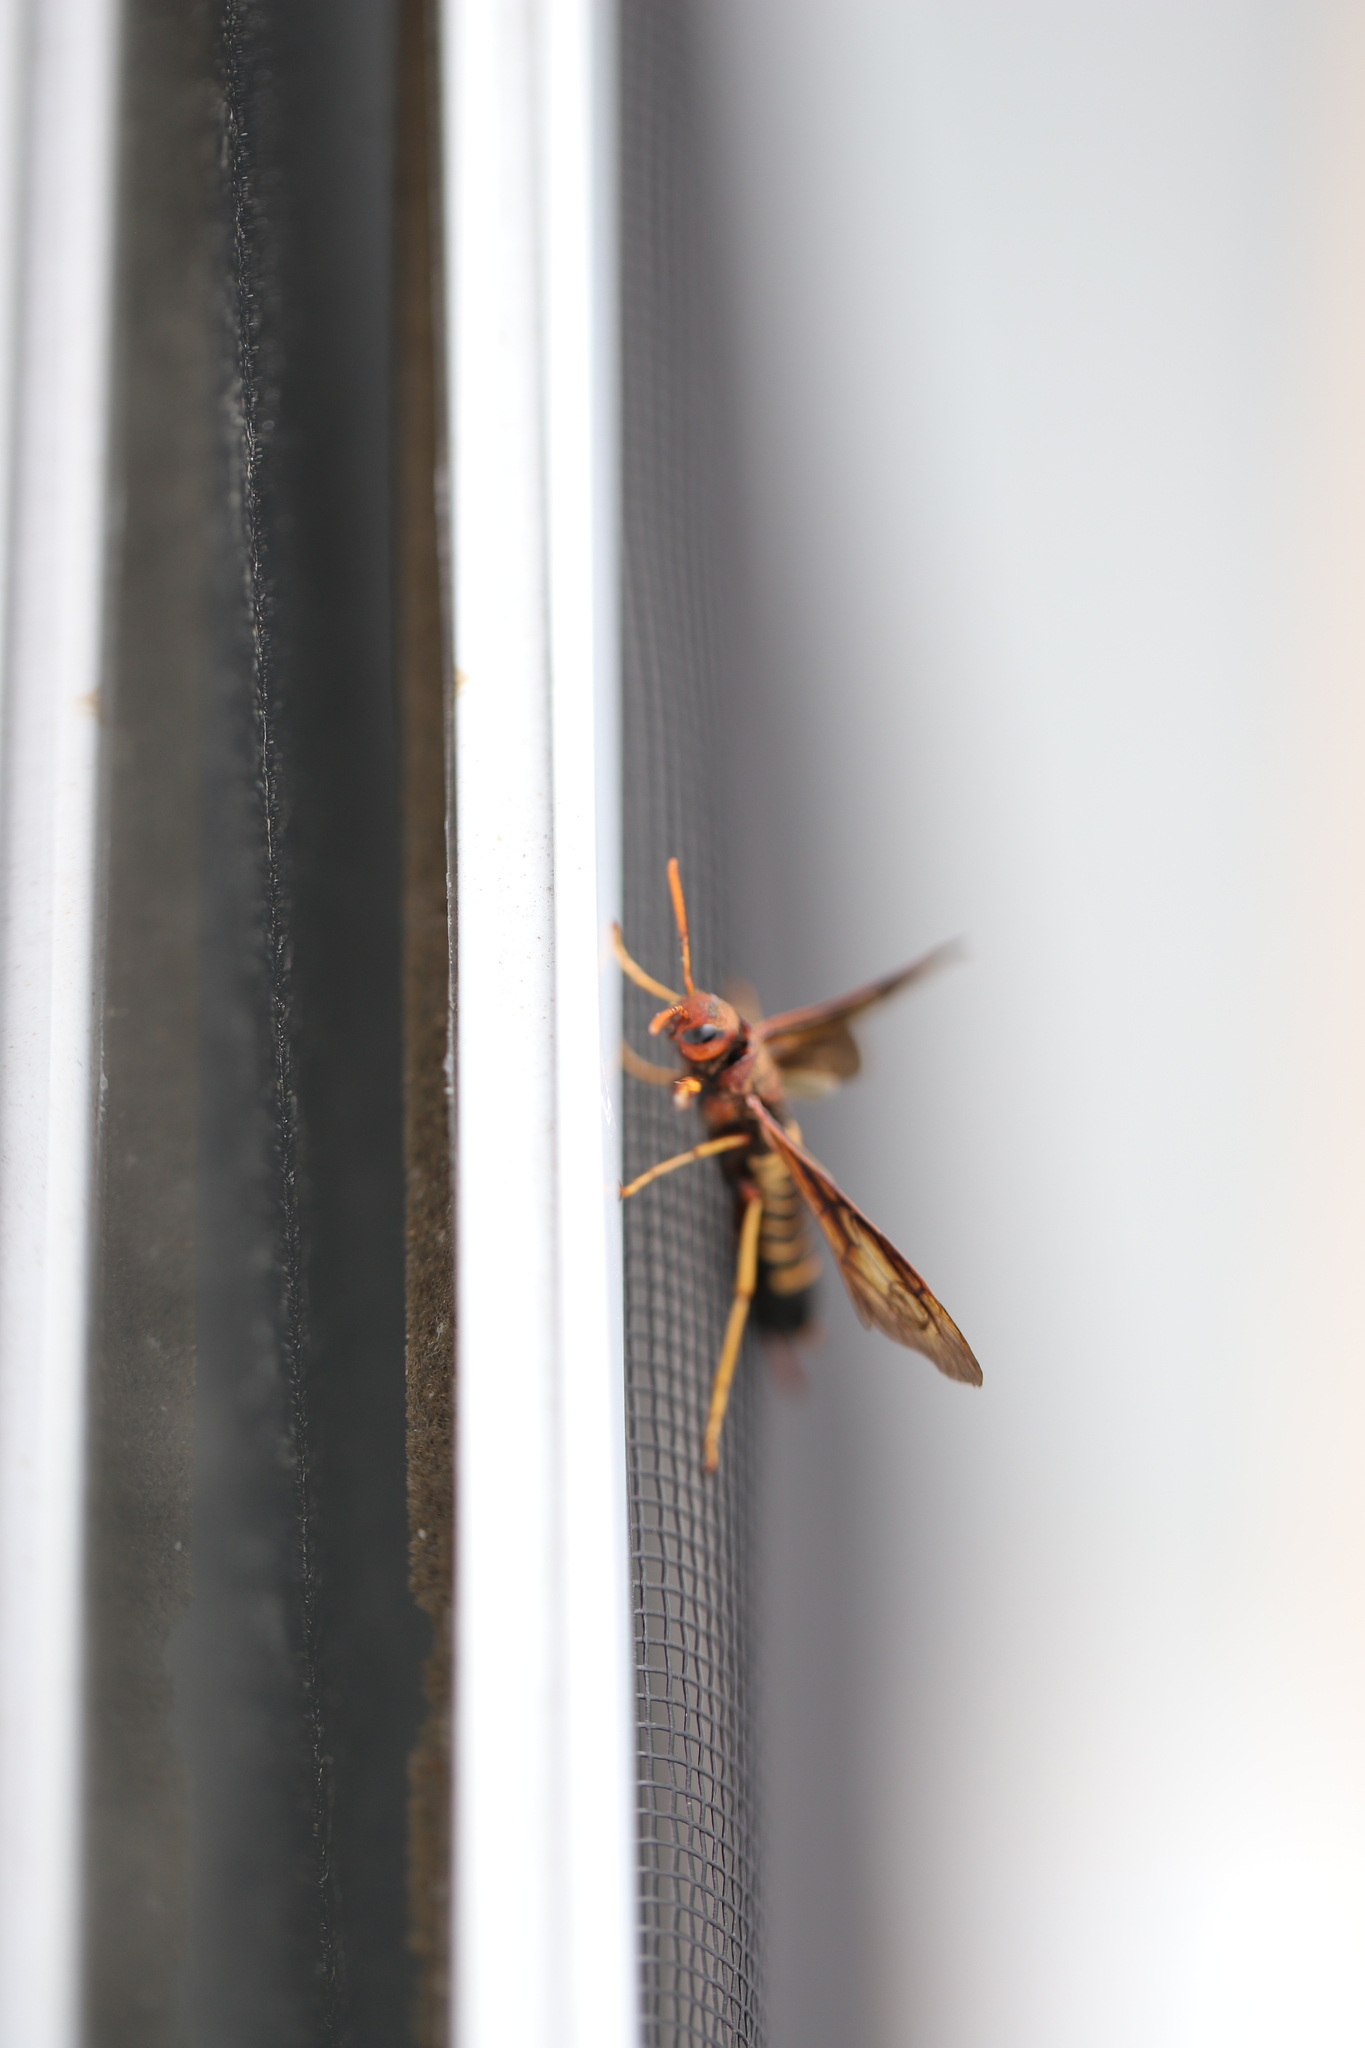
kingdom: Animalia
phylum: Arthropoda
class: Insecta
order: Hymenoptera
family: Siricidae
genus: Tremex
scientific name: Tremex columba
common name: Wasp
